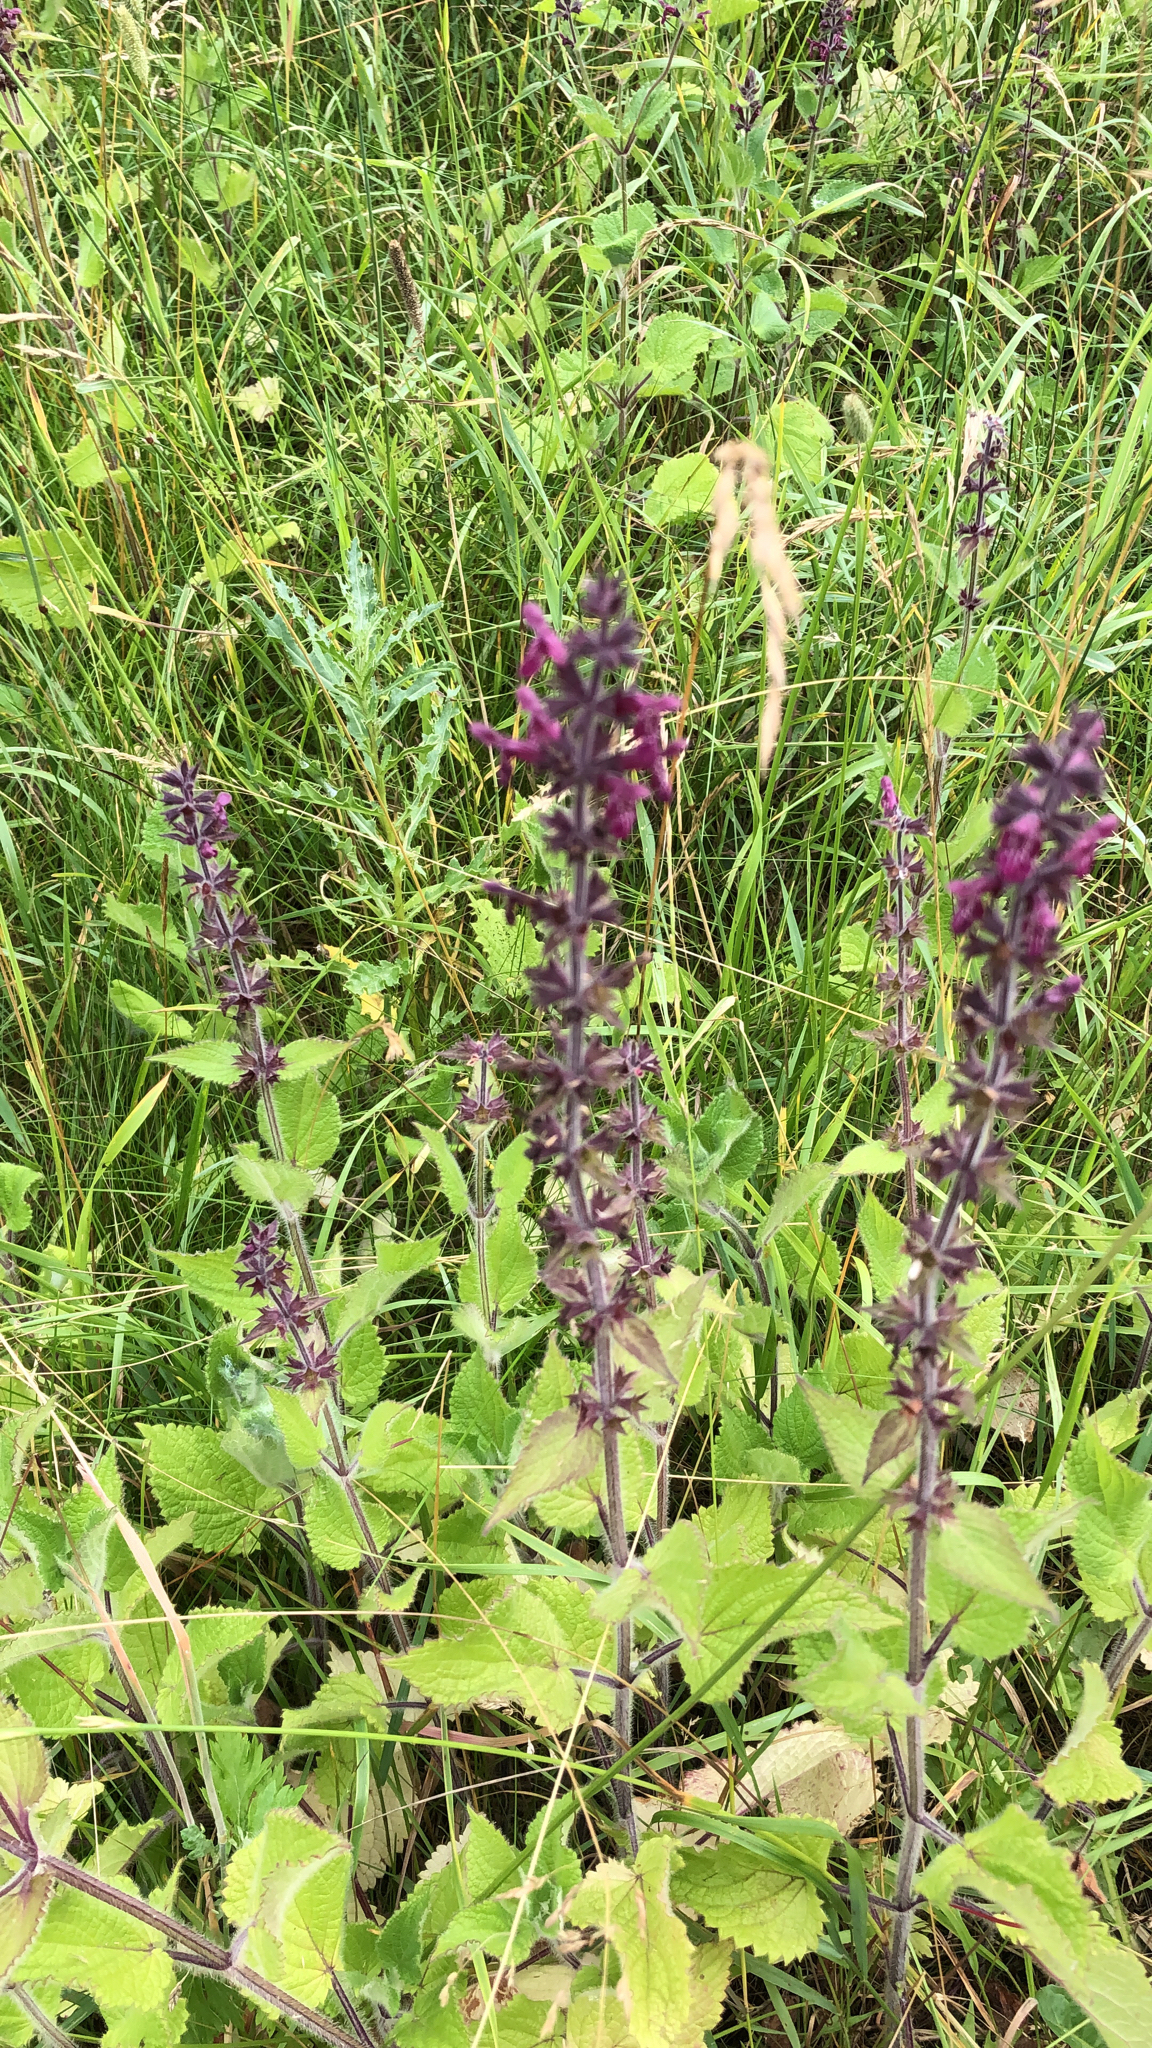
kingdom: Plantae
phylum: Tracheophyta
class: Magnoliopsida
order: Lamiales
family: Lamiaceae
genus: Stachys
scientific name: Stachys sylvatica
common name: Hedge woundwort
